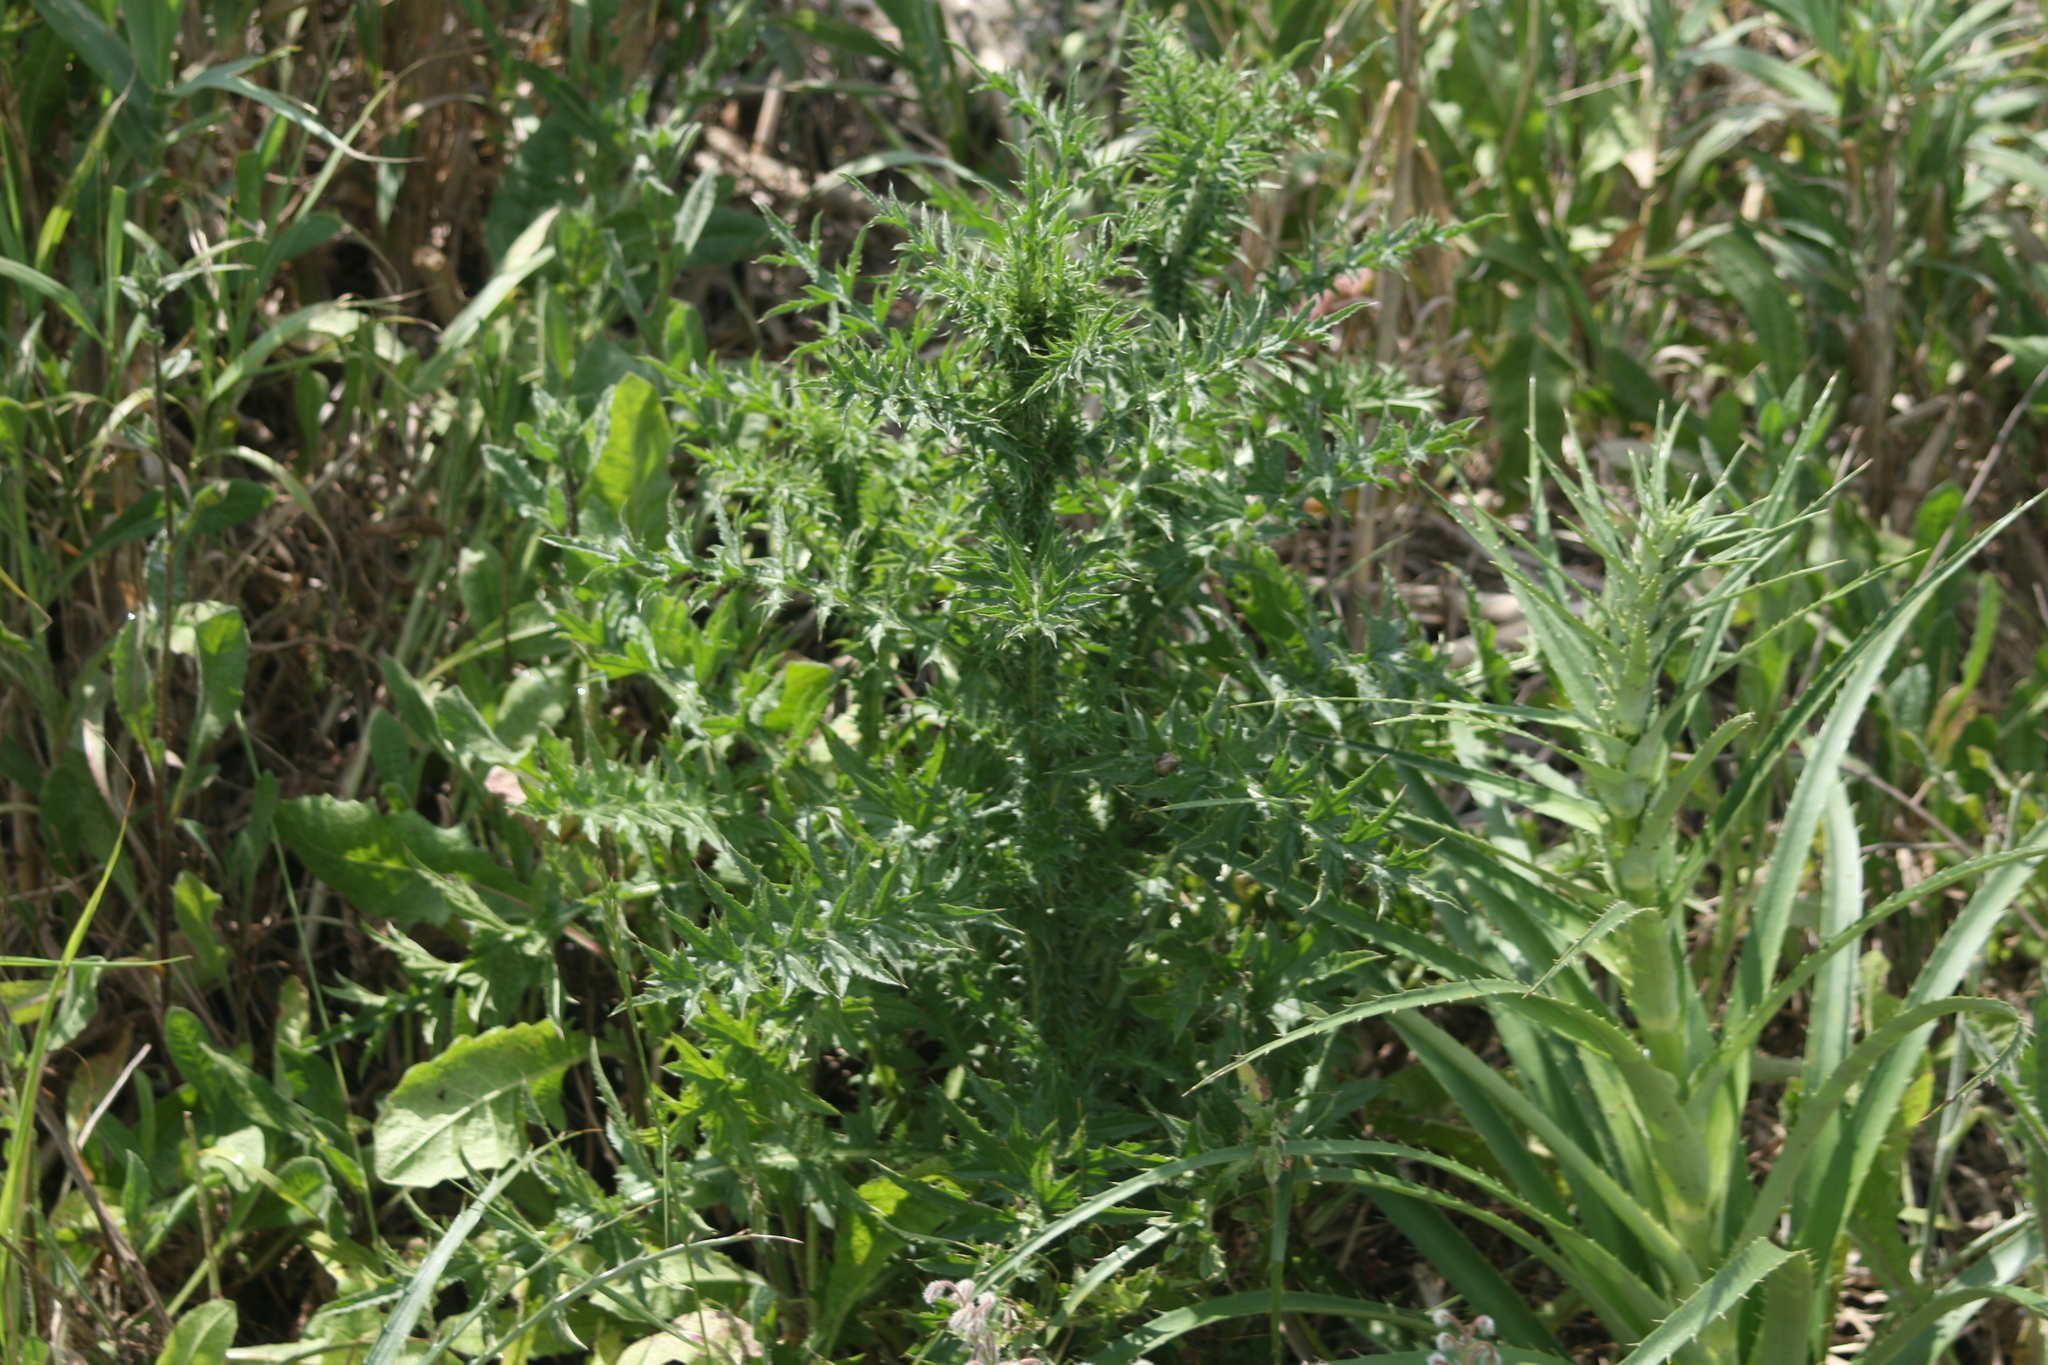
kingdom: Plantae
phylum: Tracheophyta
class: Magnoliopsida
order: Asterales
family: Asteraceae
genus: Carduus
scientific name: Carduus acanthoides
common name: Plumeless thistle
